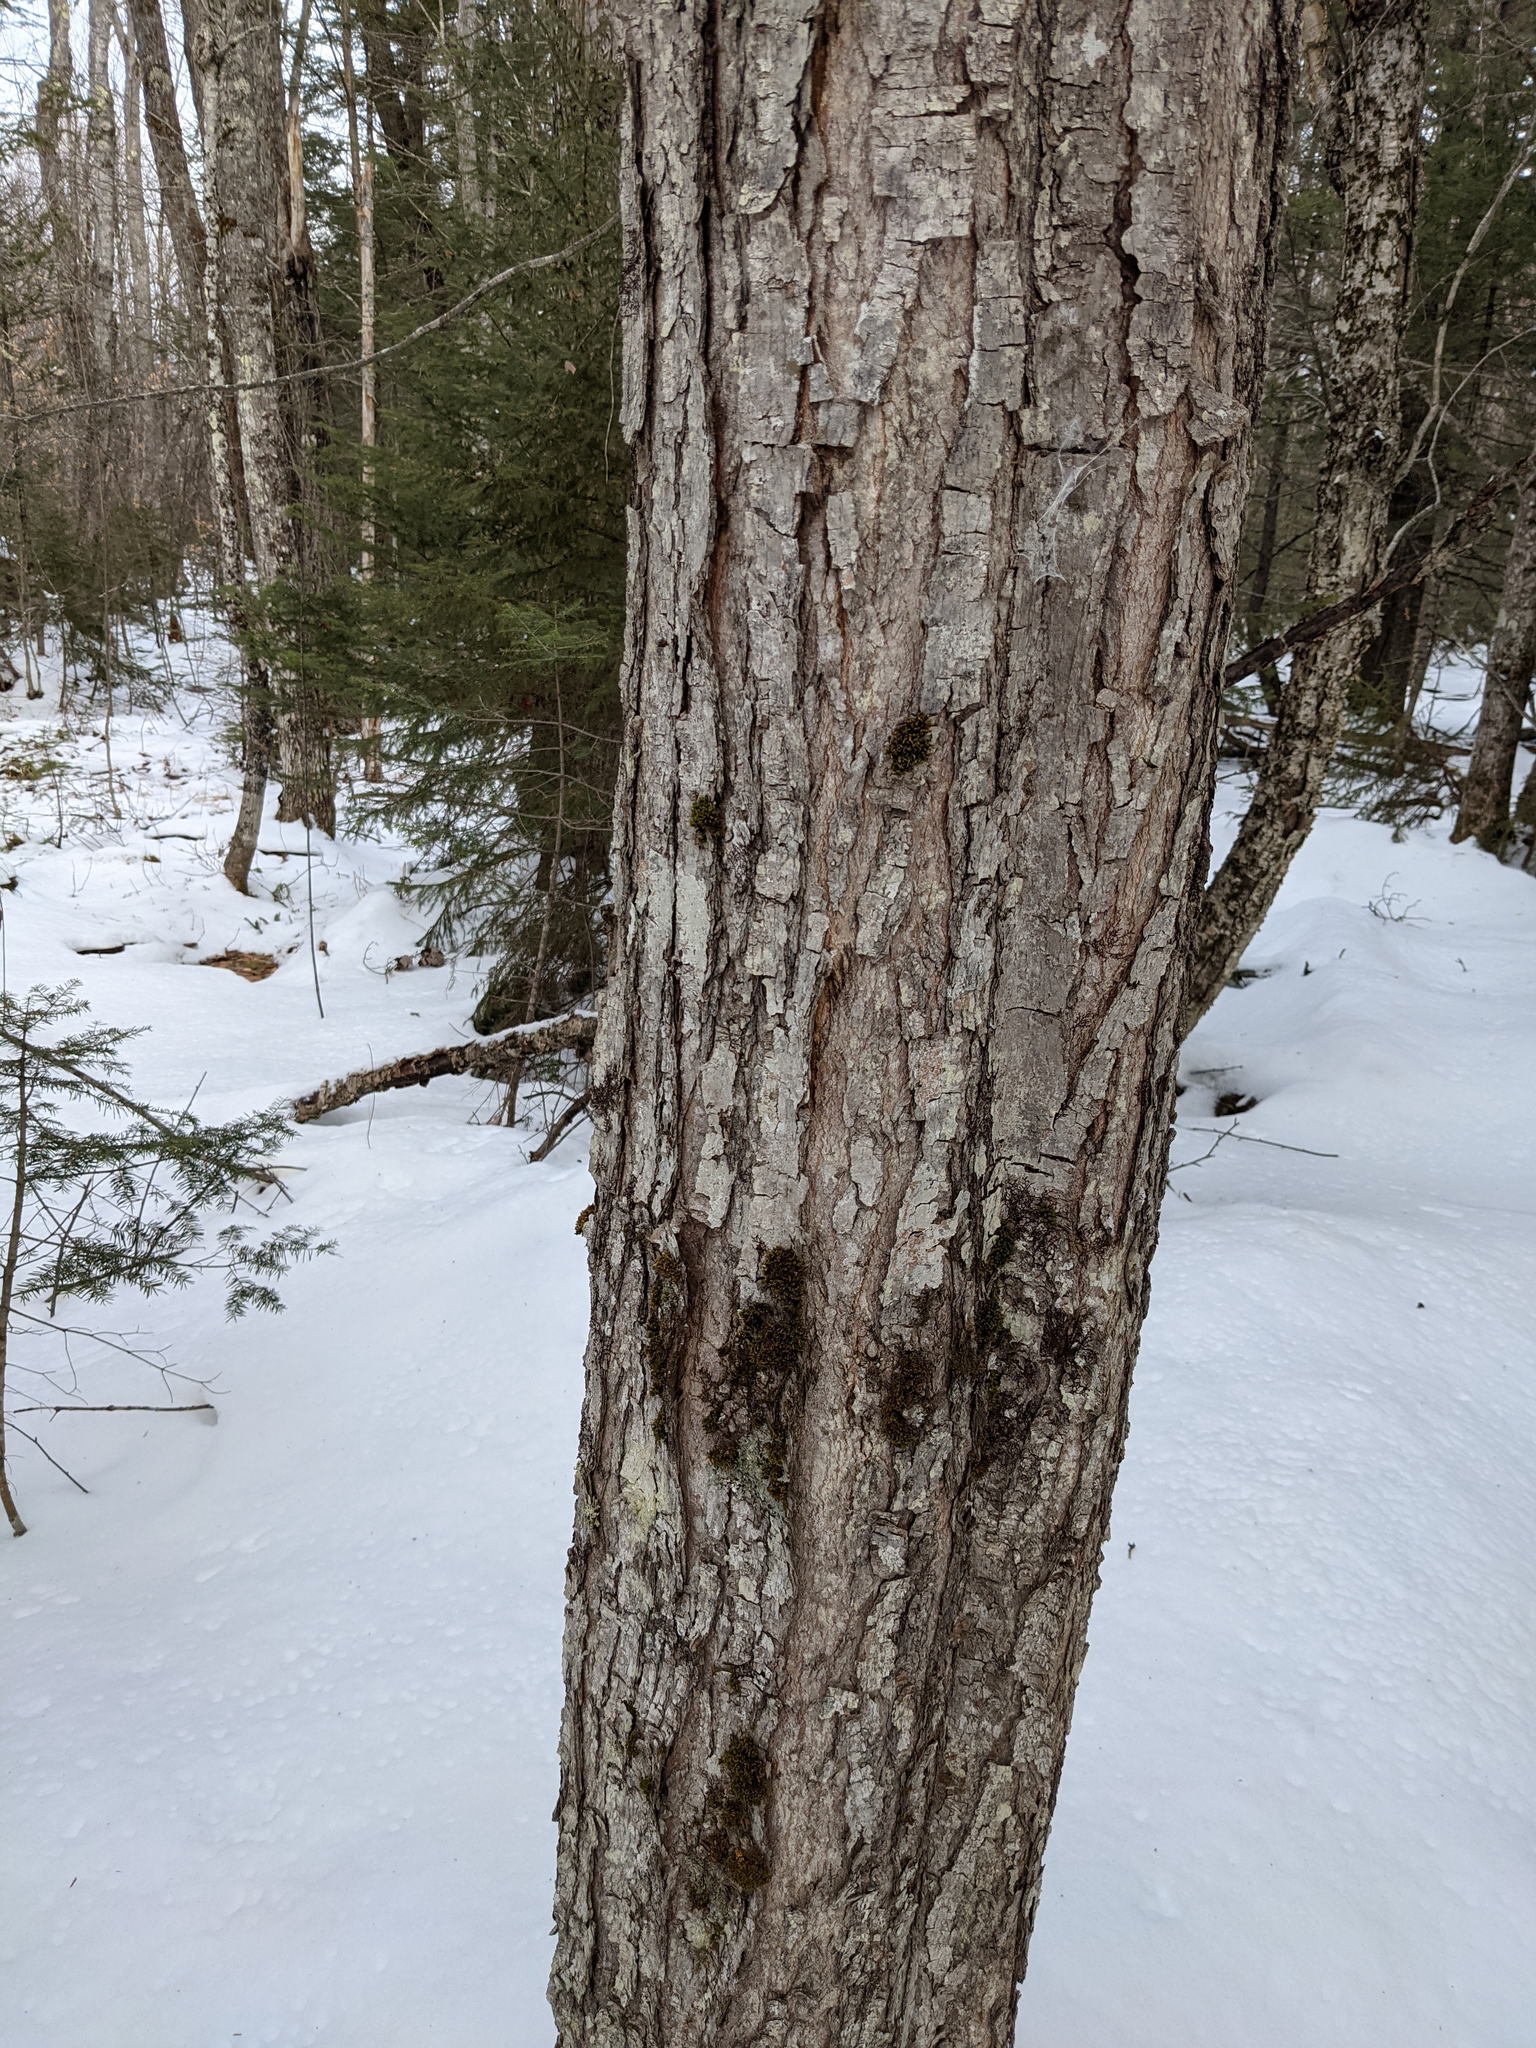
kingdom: Plantae
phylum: Bryophyta
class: Bryopsida
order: Orthotrichales
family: Orthotrichaceae
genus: Ulota
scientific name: Ulota crispa
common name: Crisped pincushion moss
